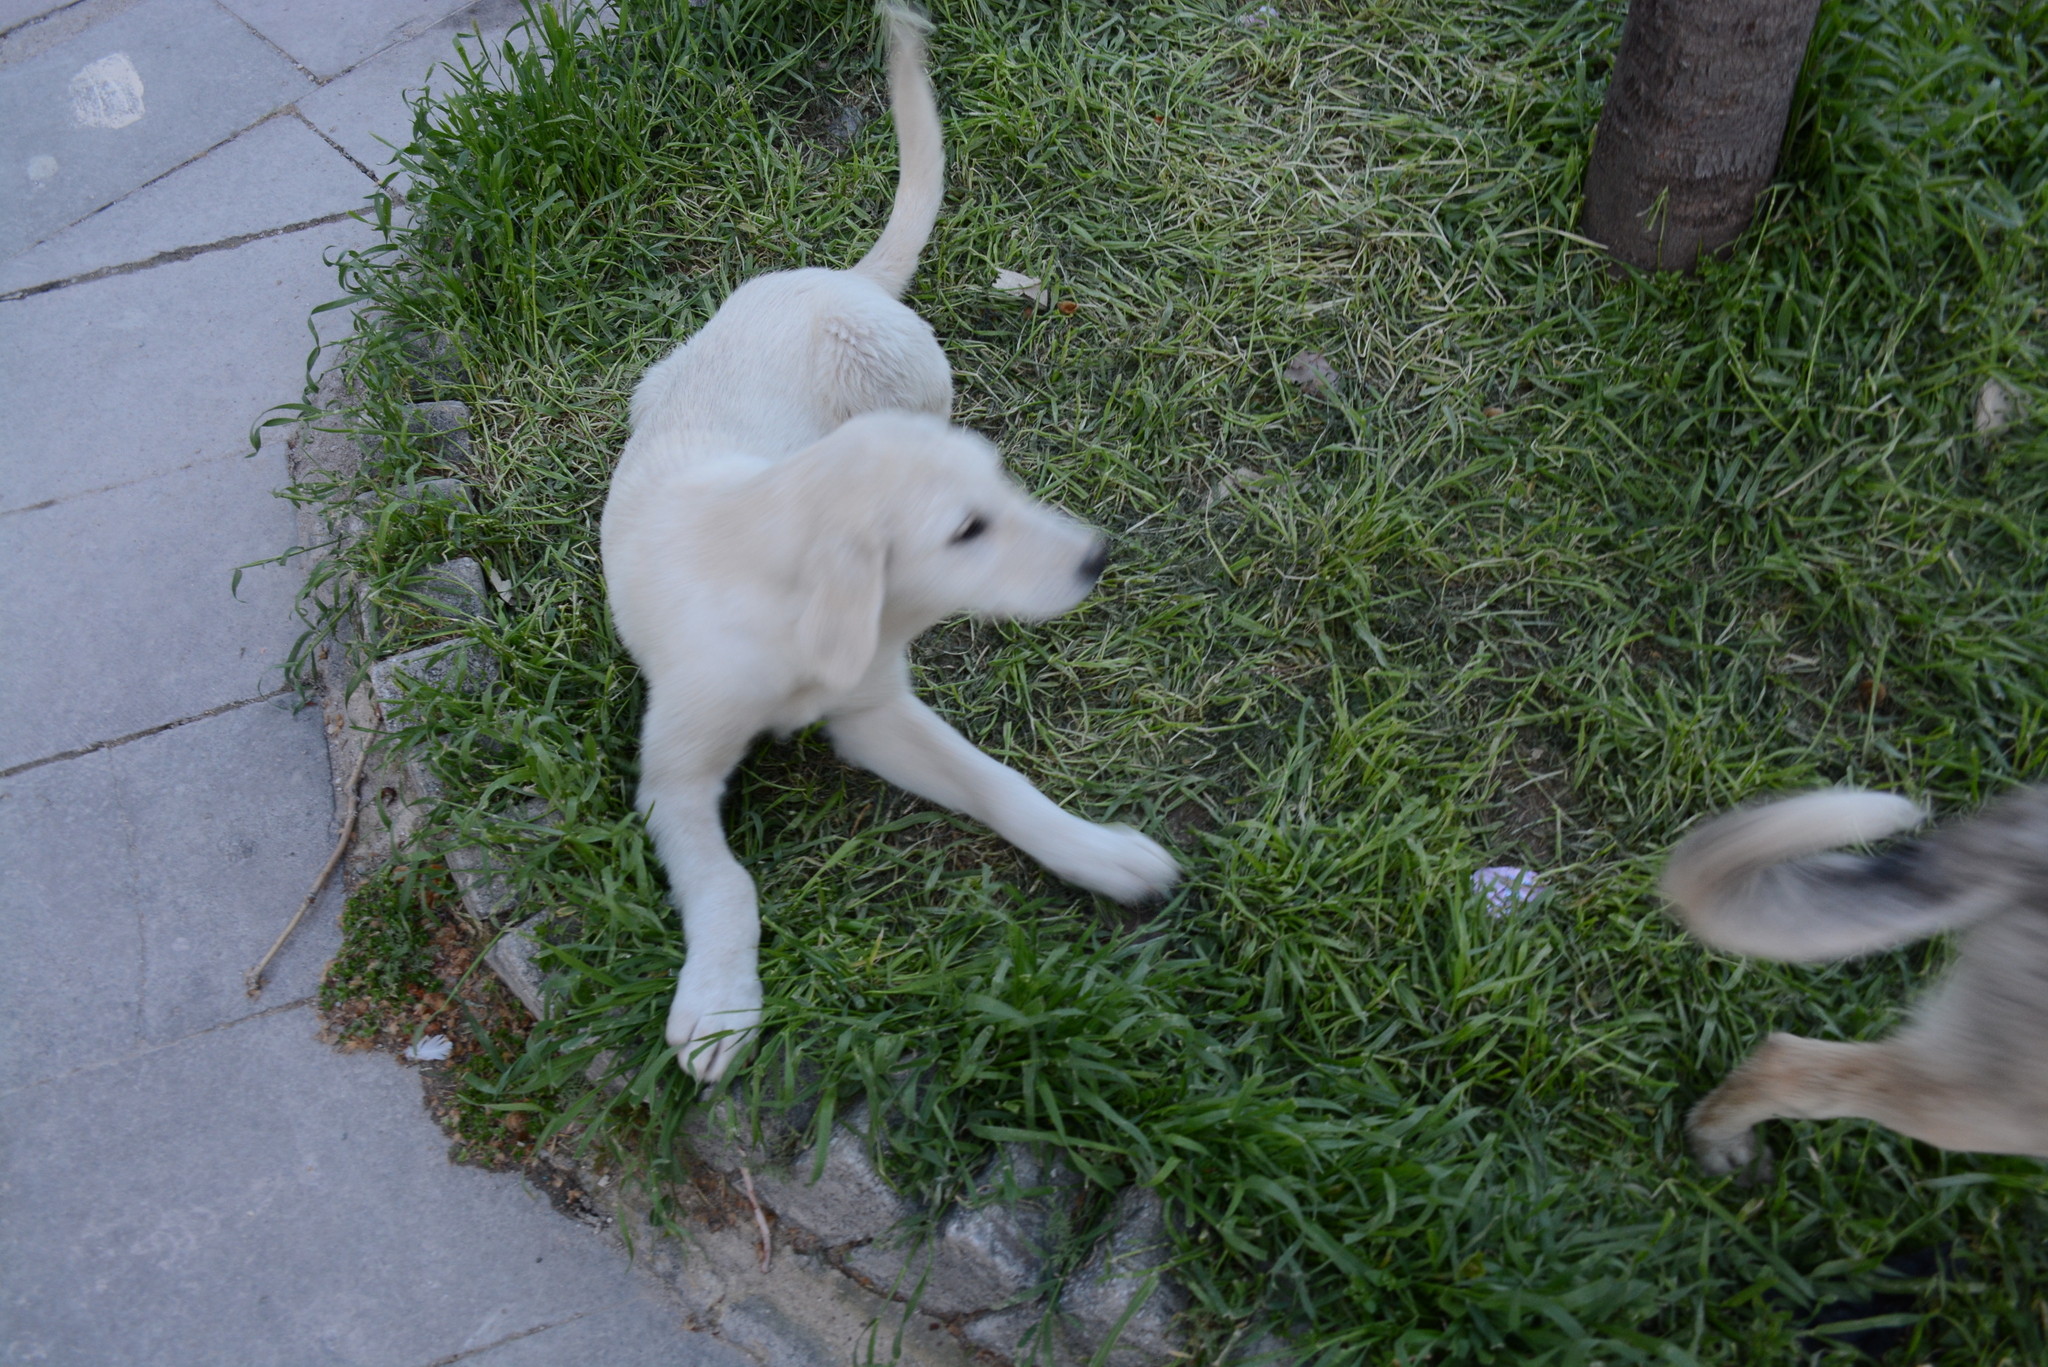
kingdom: Animalia
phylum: Chordata
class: Mammalia
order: Carnivora
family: Canidae
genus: Canis
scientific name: Canis lupus
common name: Gray wolf
